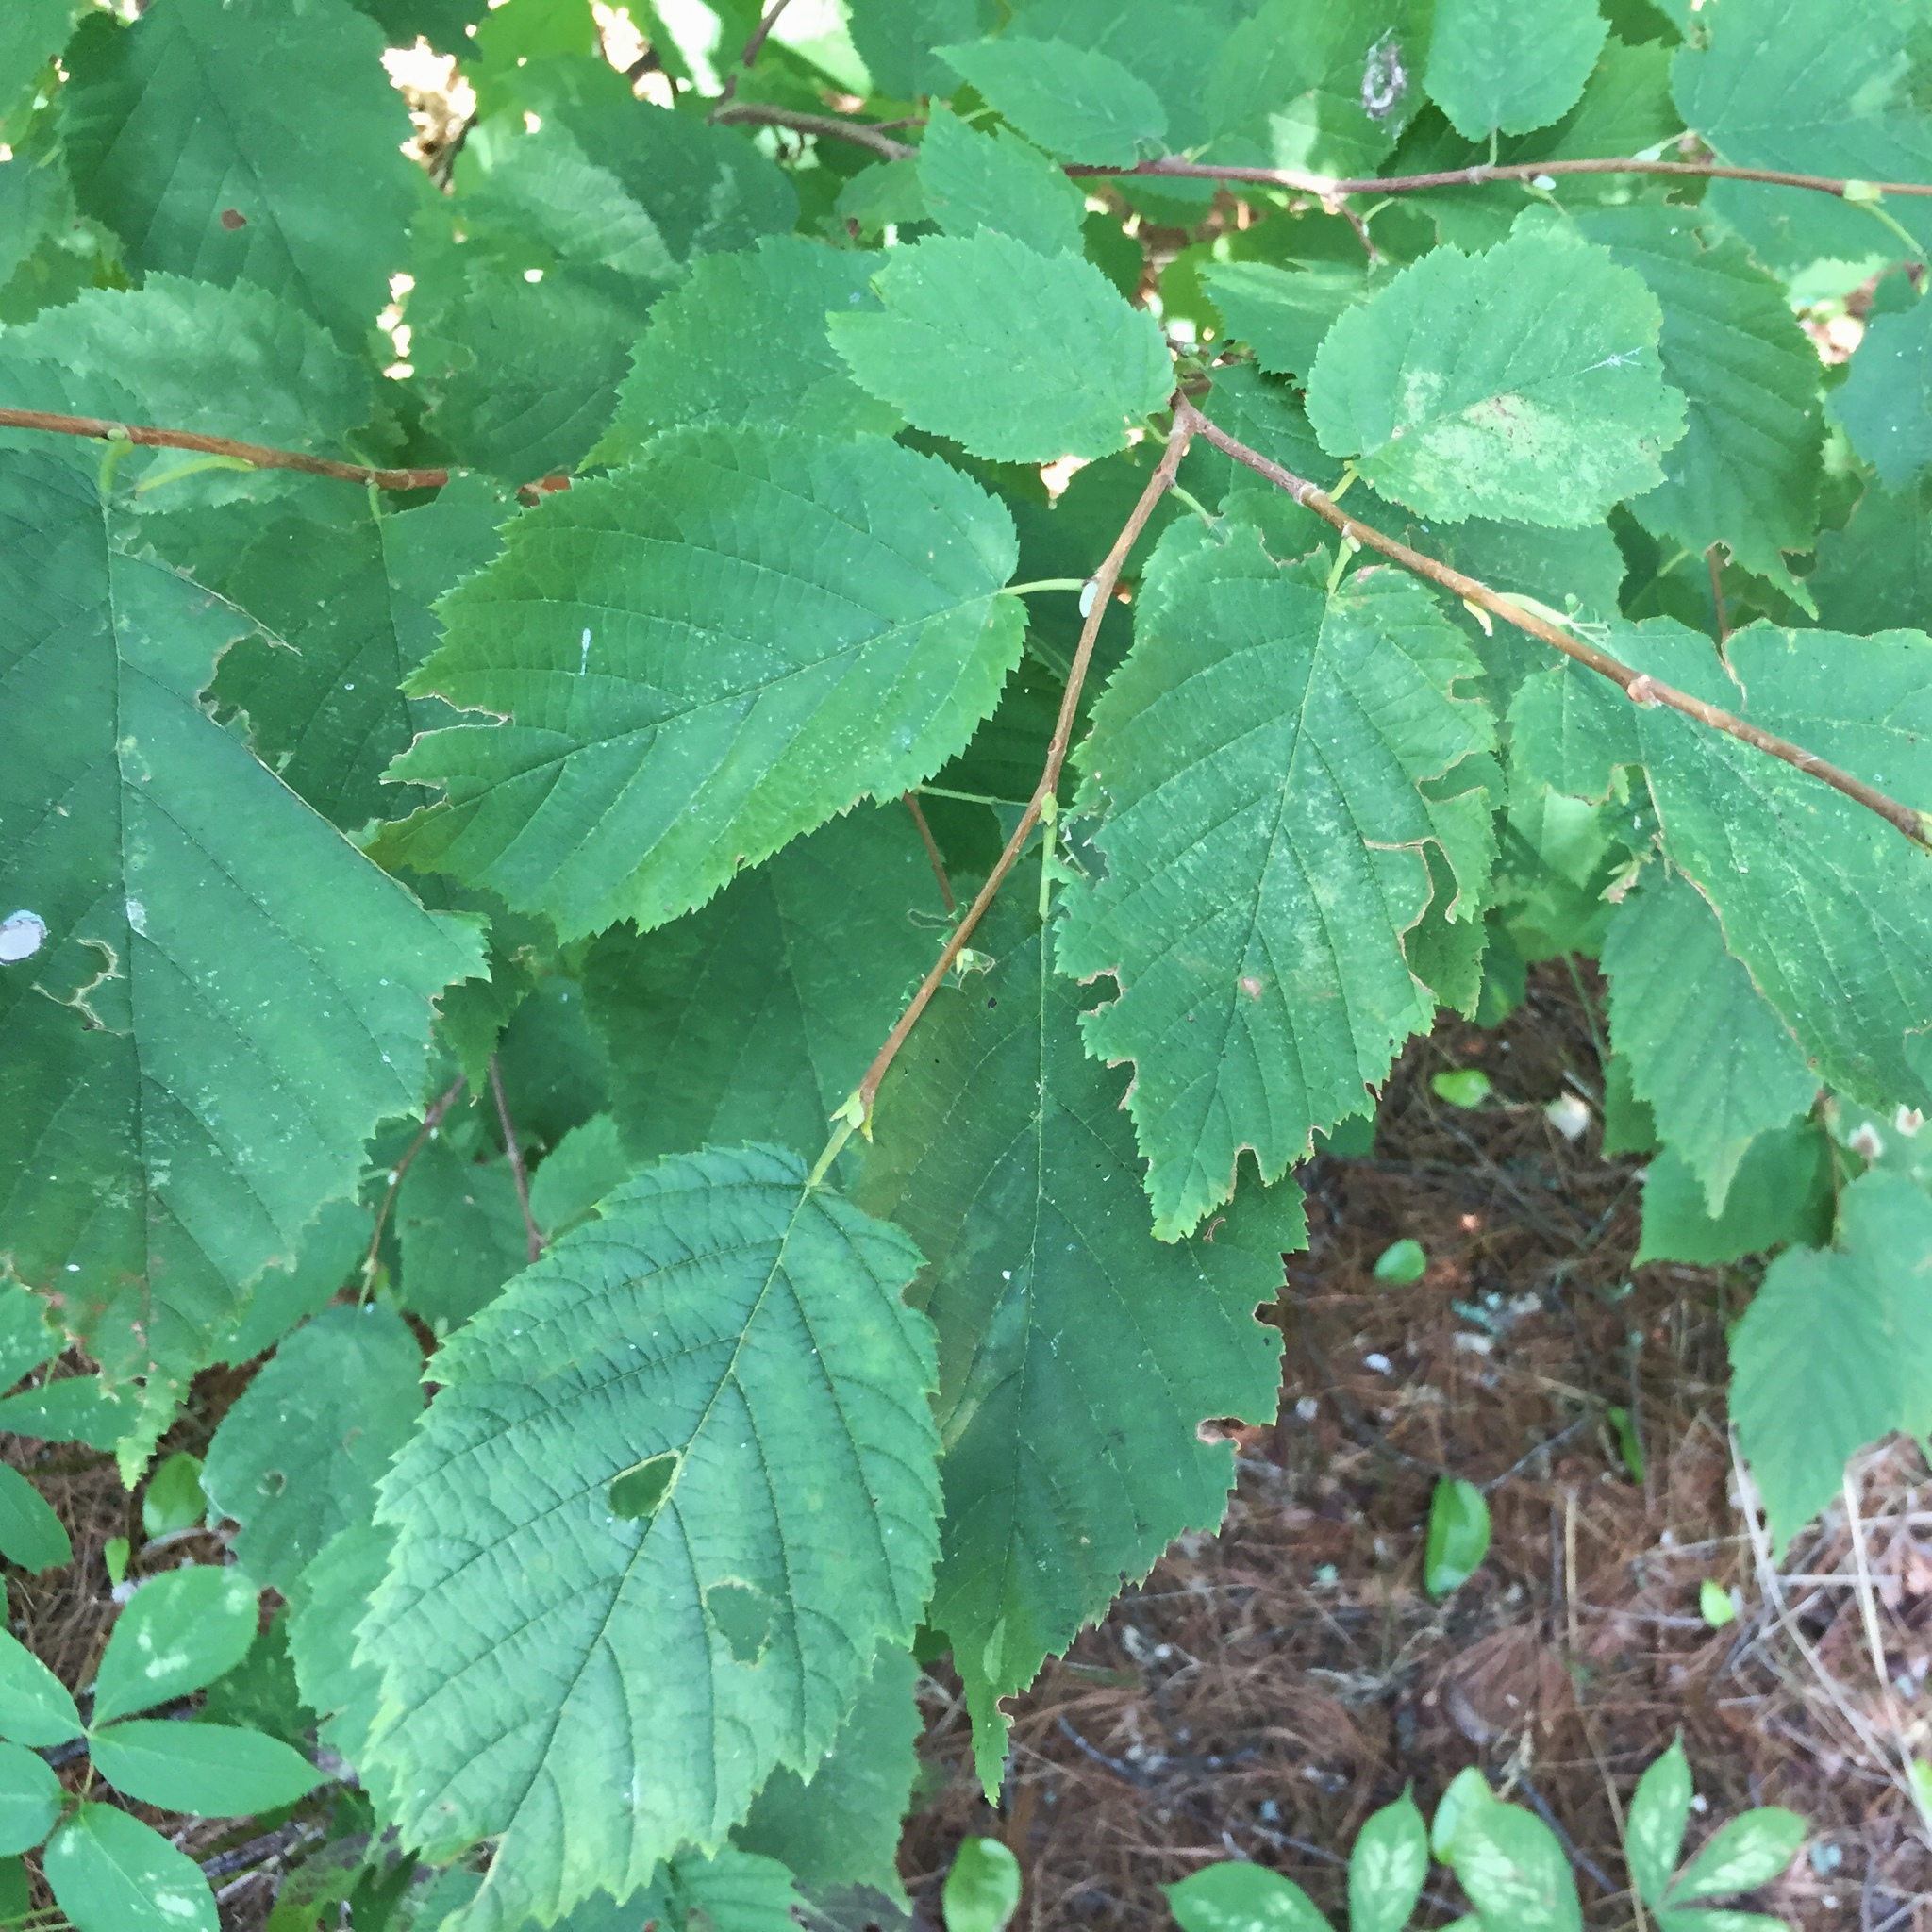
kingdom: Plantae
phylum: Tracheophyta
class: Magnoliopsida
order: Fagales
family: Betulaceae
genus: Corylus
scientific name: Corylus cornuta
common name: Beaked hazel
